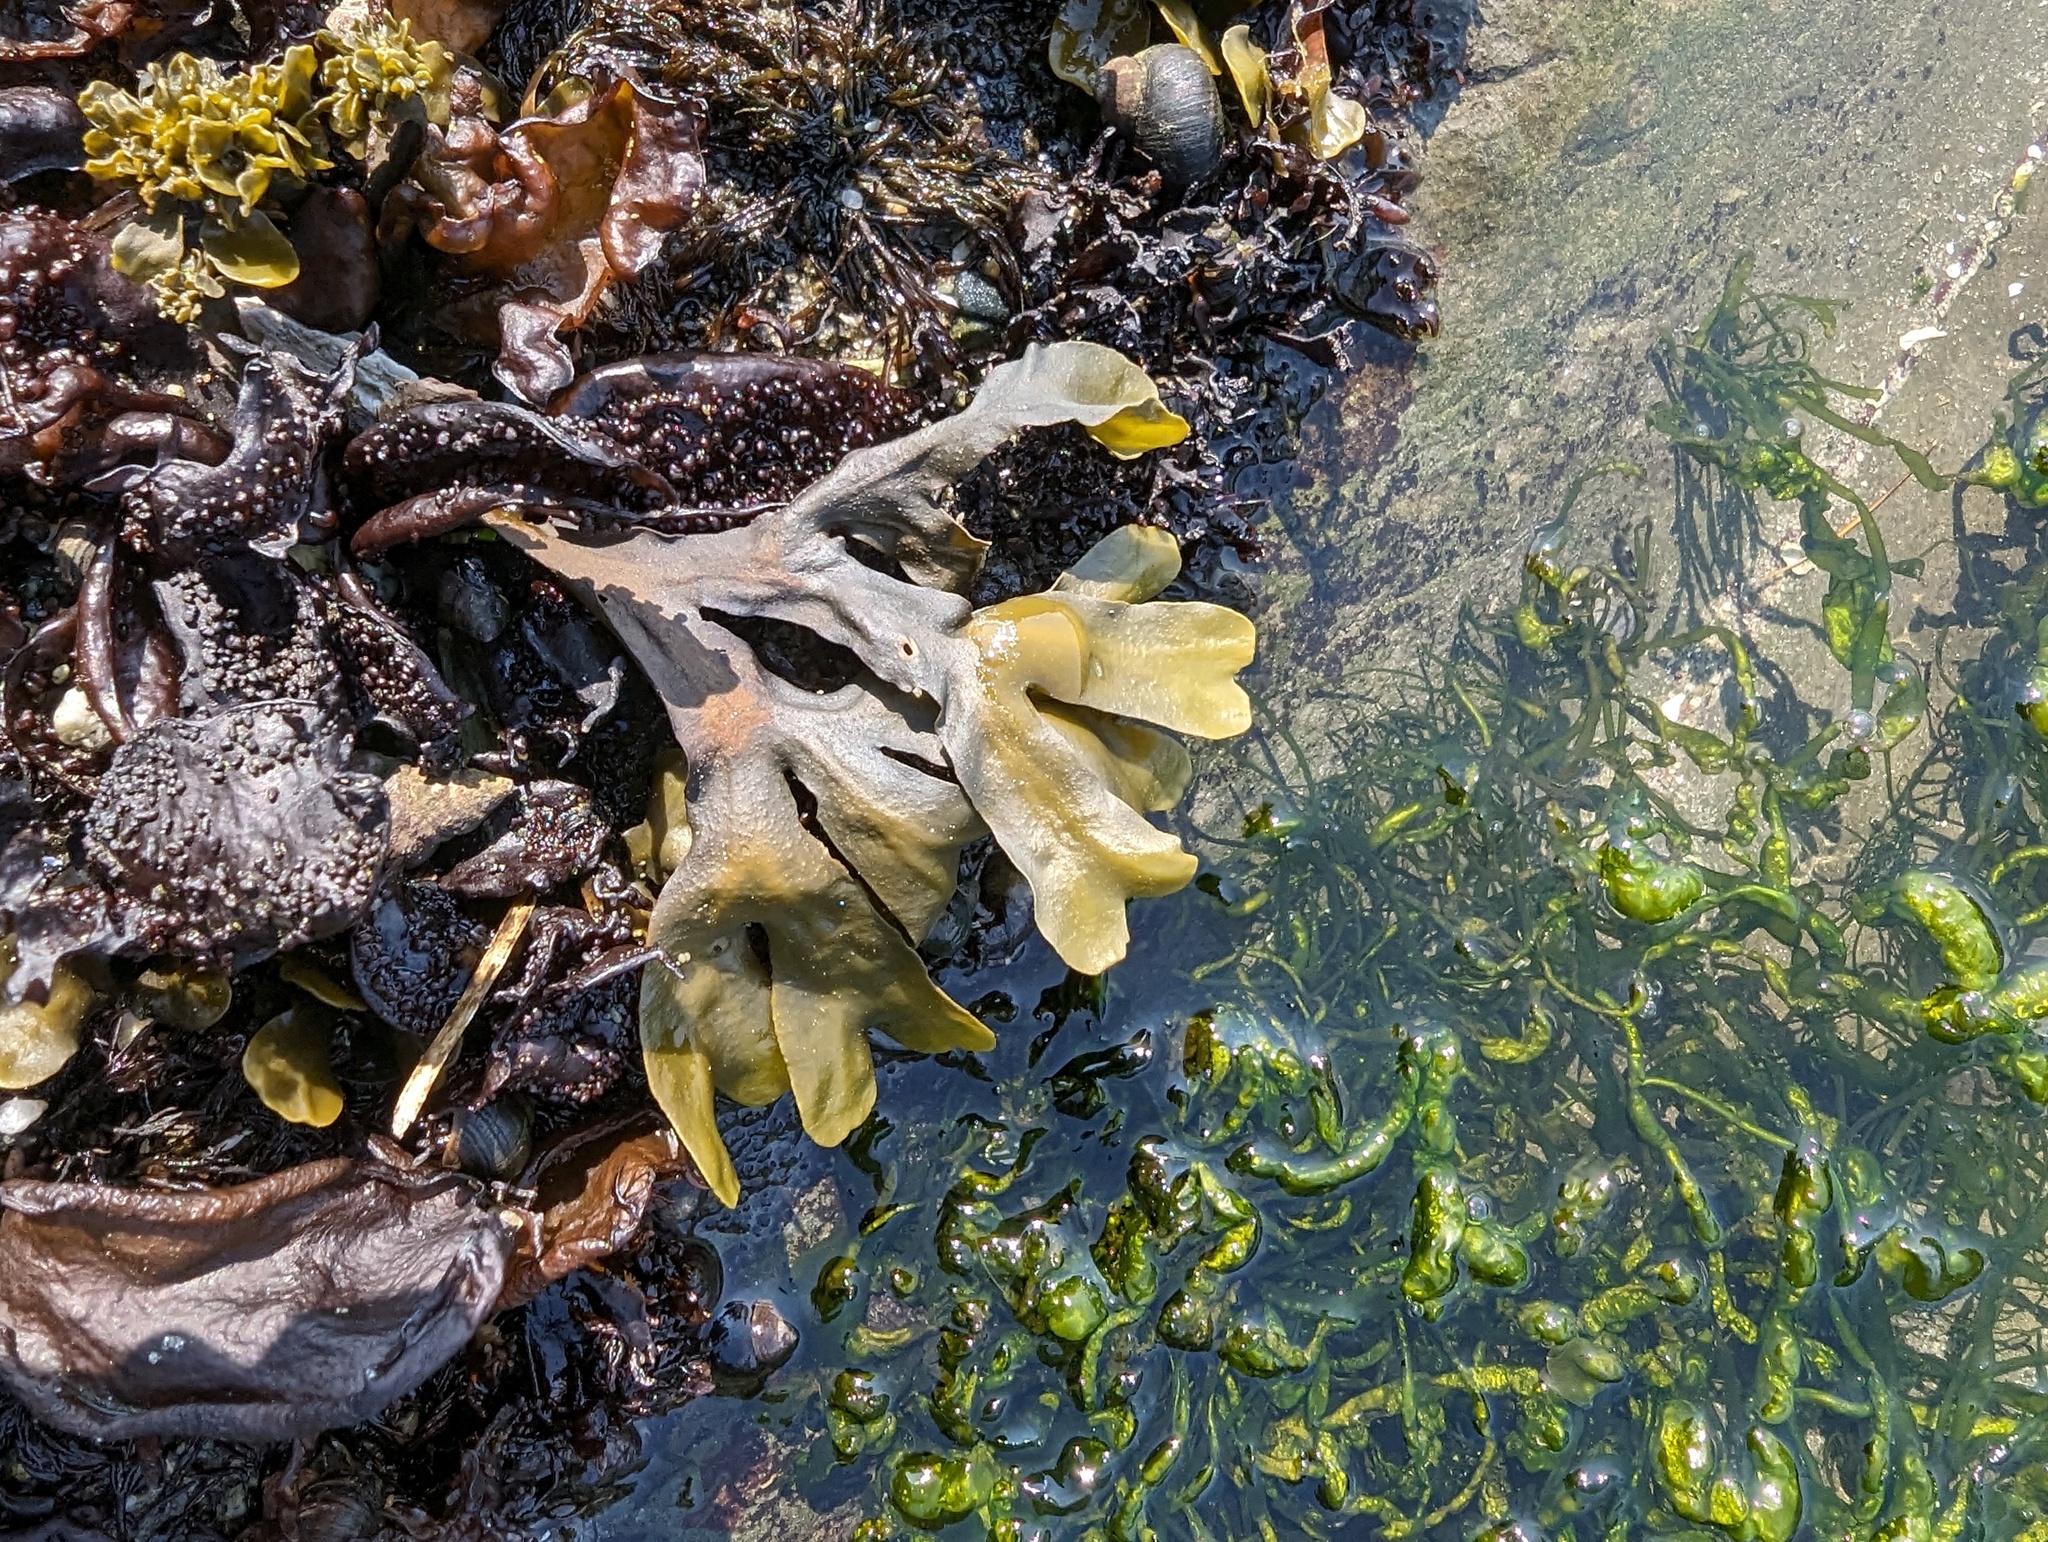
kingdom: Chromista
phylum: Ochrophyta
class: Phaeophyceae
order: Fucales
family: Fucaceae
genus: Fucus
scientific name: Fucus distichus
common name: Rockweed
